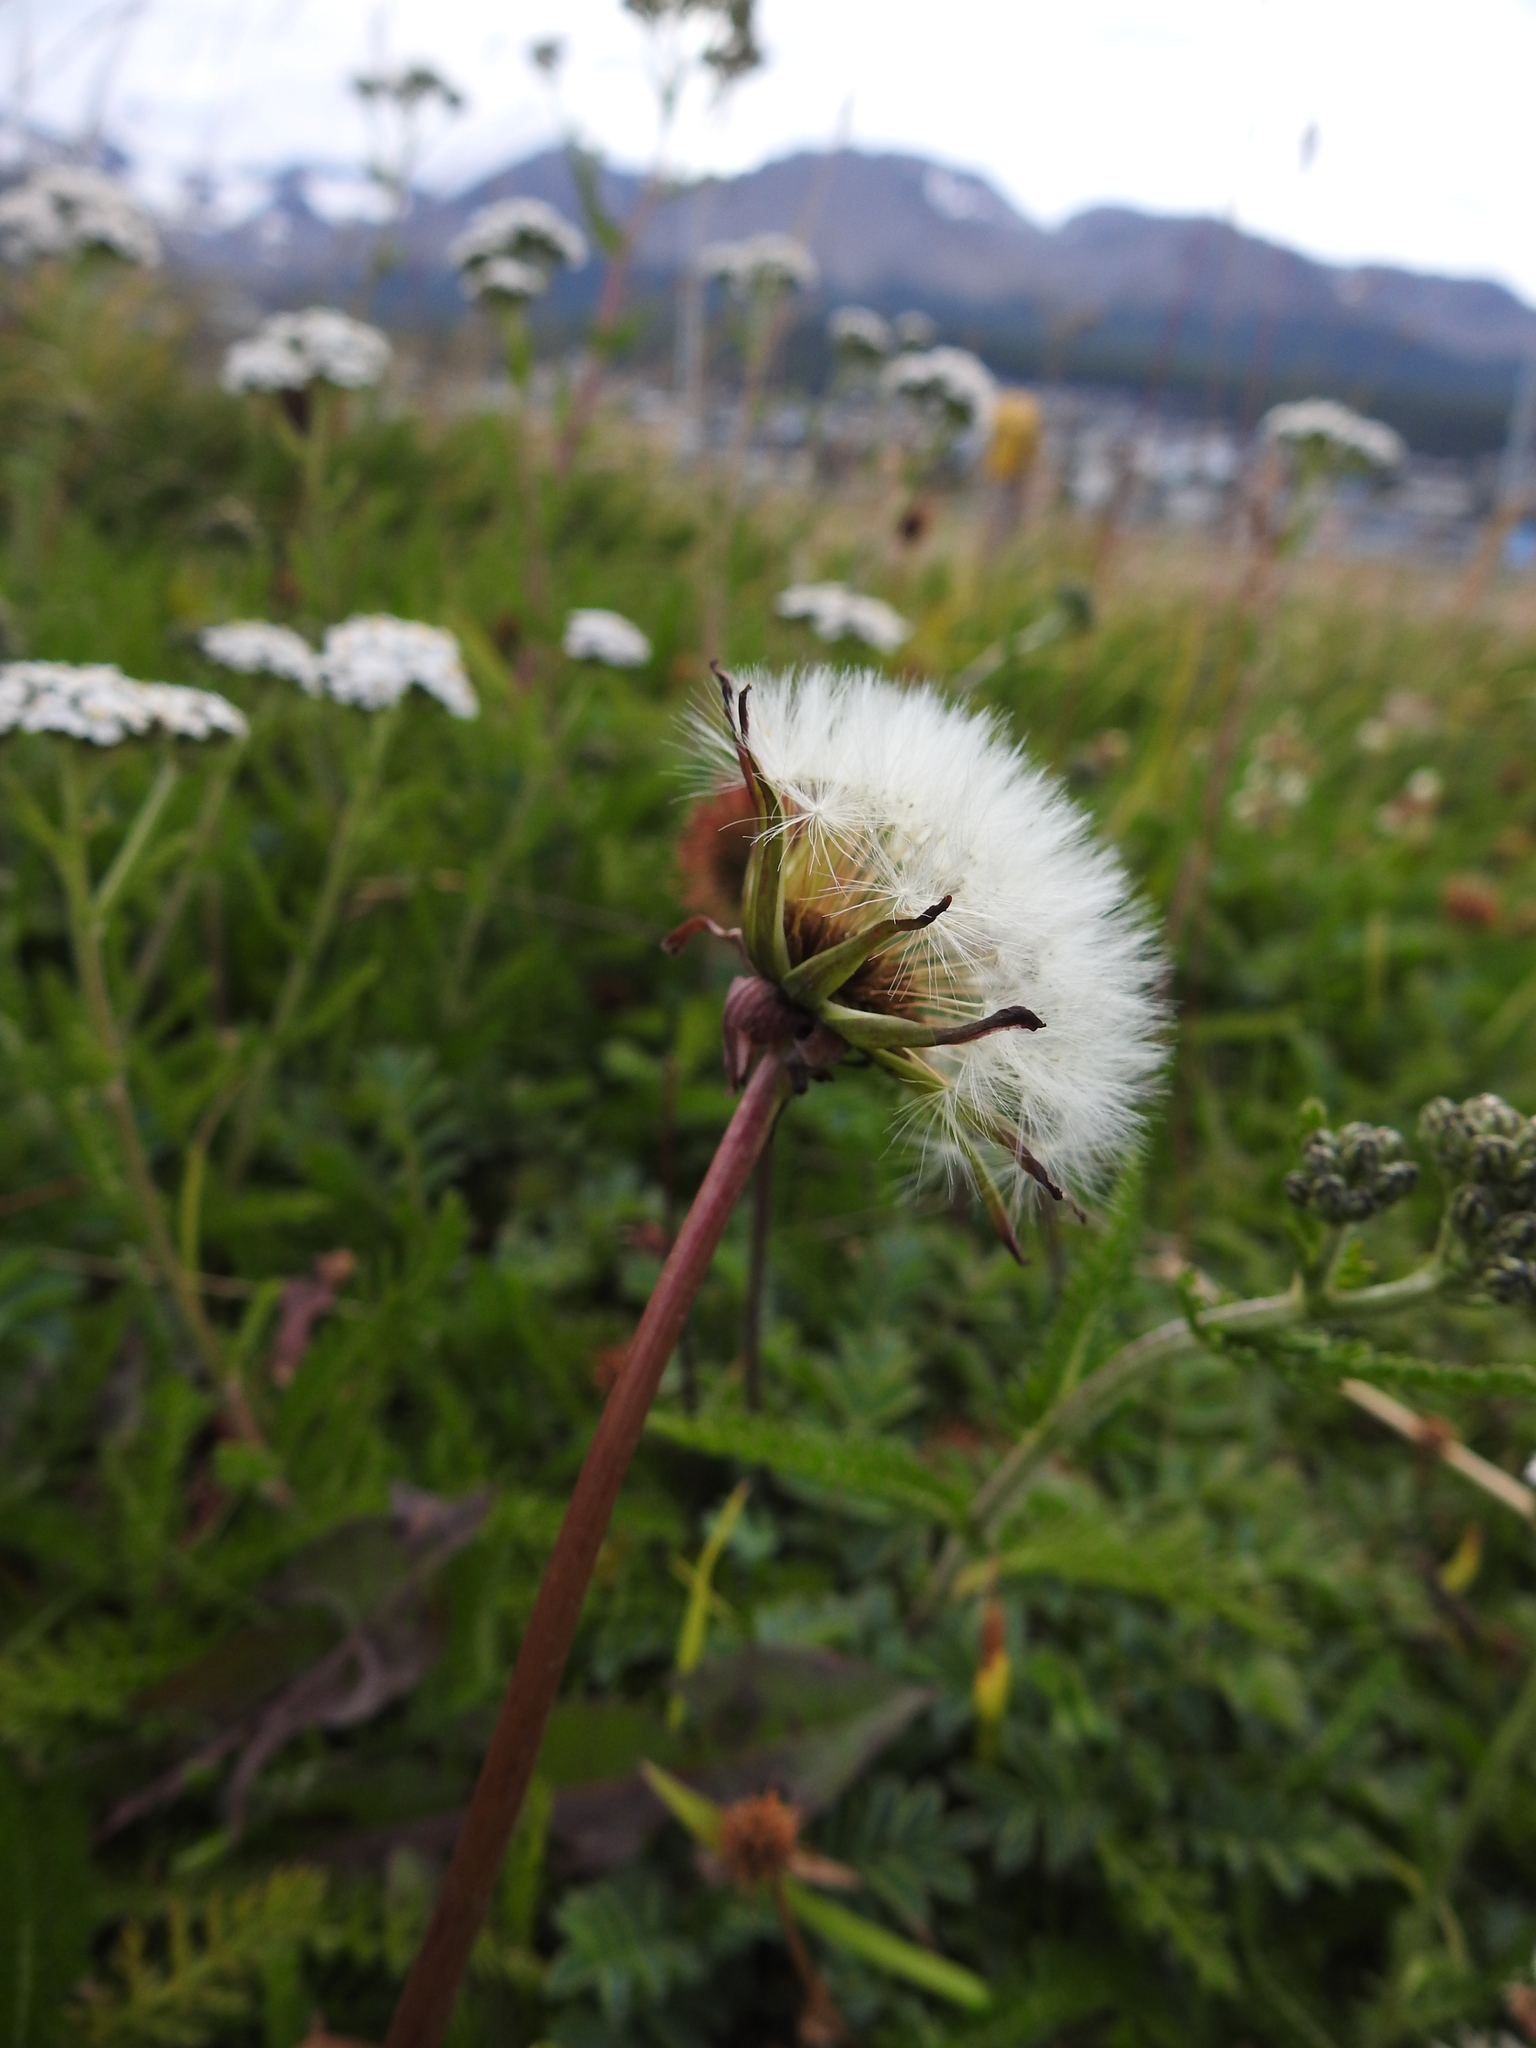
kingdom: Plantae
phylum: Tracheophyta
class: Magnoliopsida
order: Asterales
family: Asteraceae
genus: Taraxacum
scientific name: Taraxacum officinale
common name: Common dandelion
